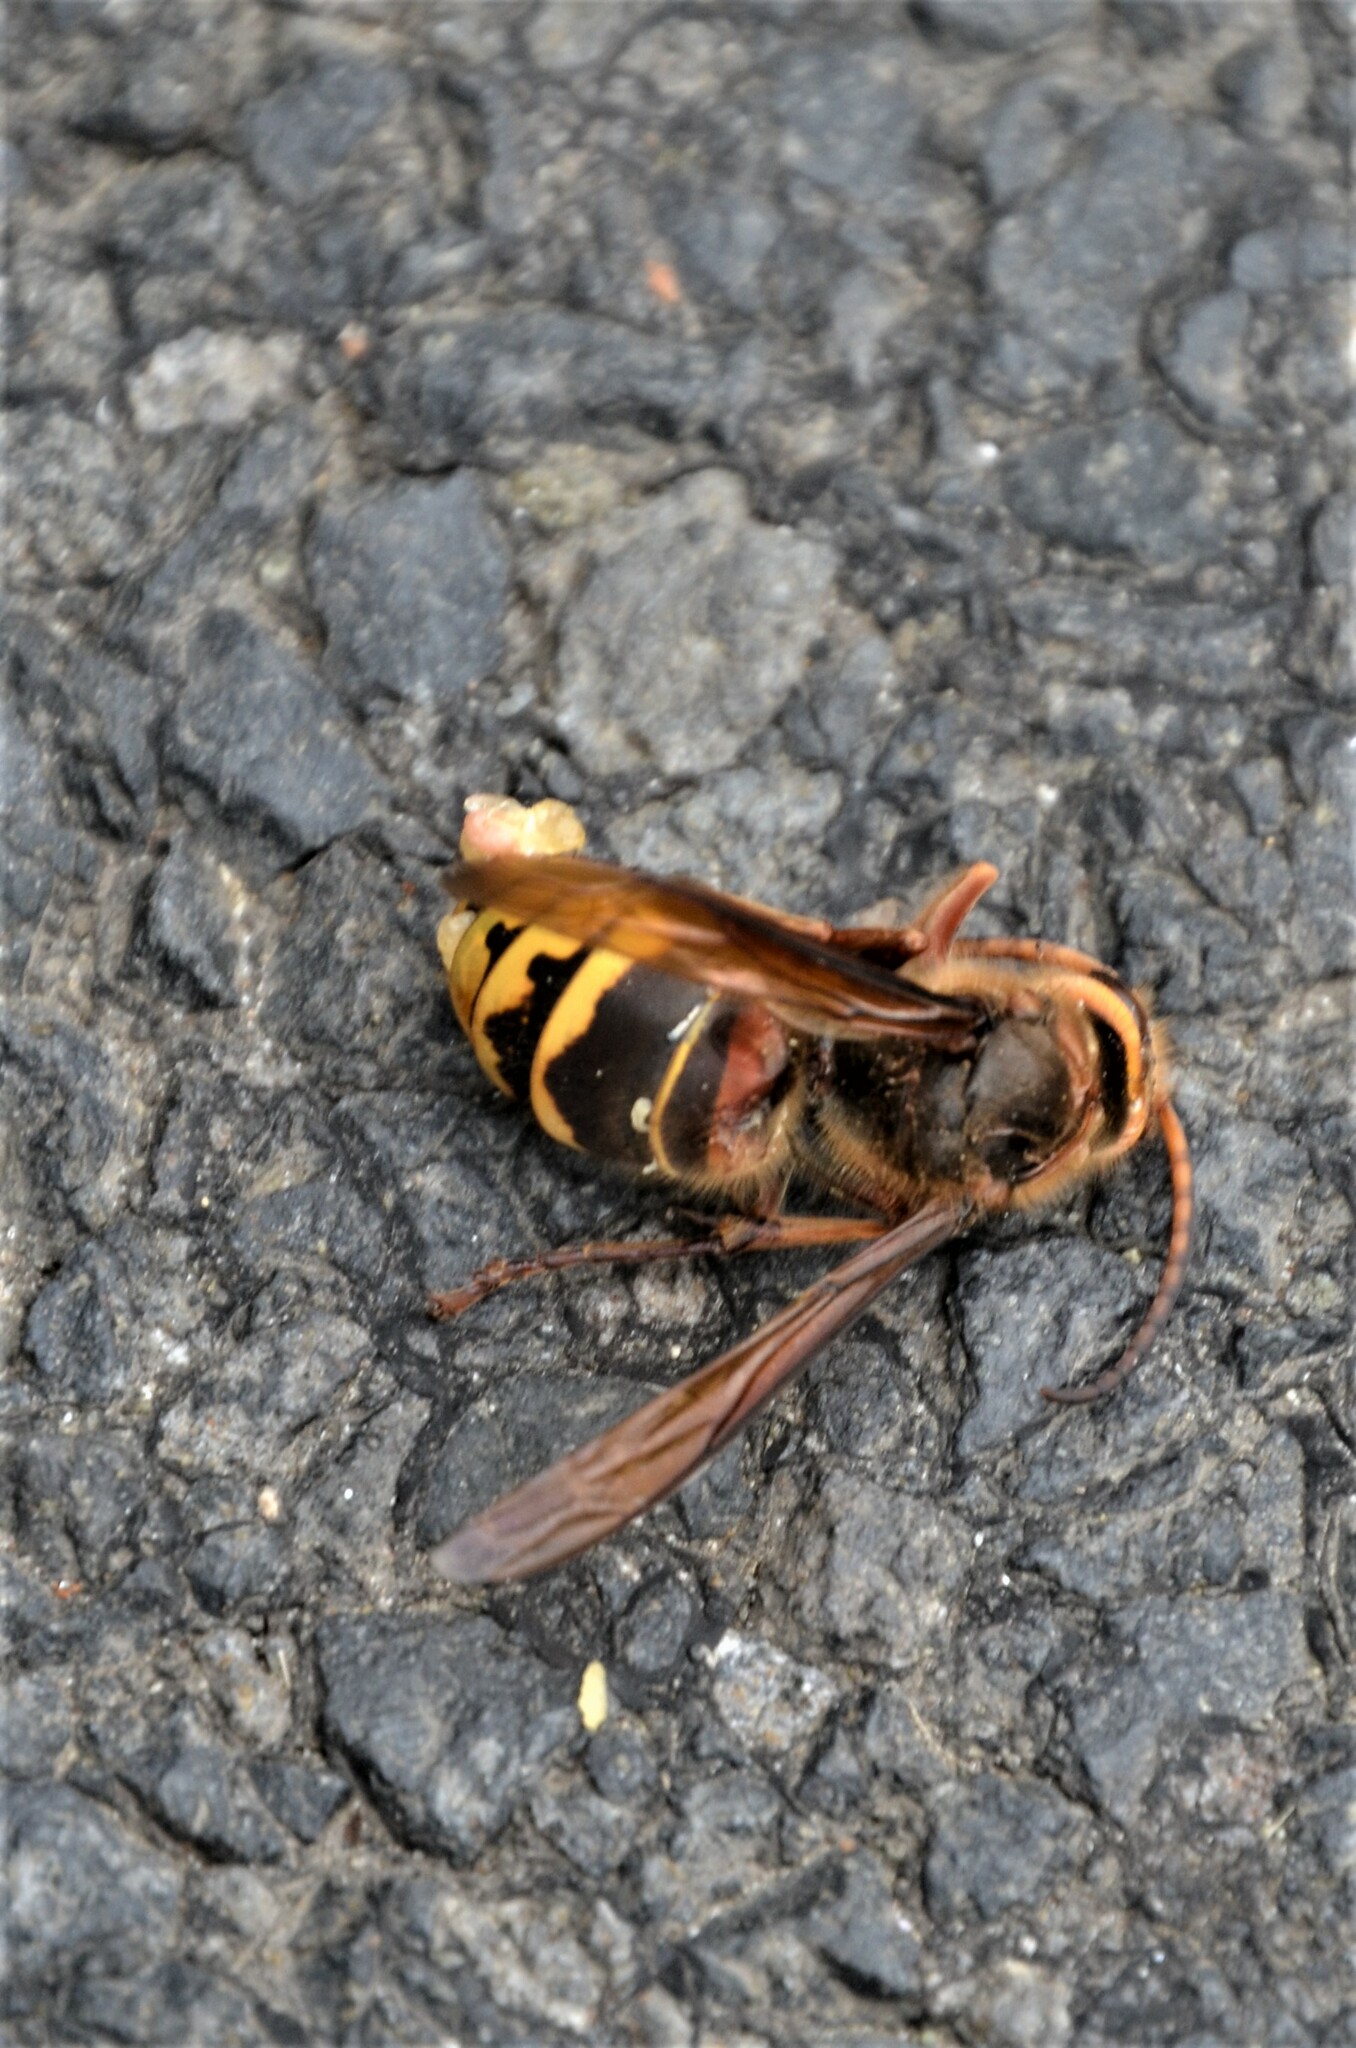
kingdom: Animalia
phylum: Arthropoda
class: Insecta
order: Hymenoptera
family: Vespidae
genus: Vespa
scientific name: Vespa crabro
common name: Hornet
